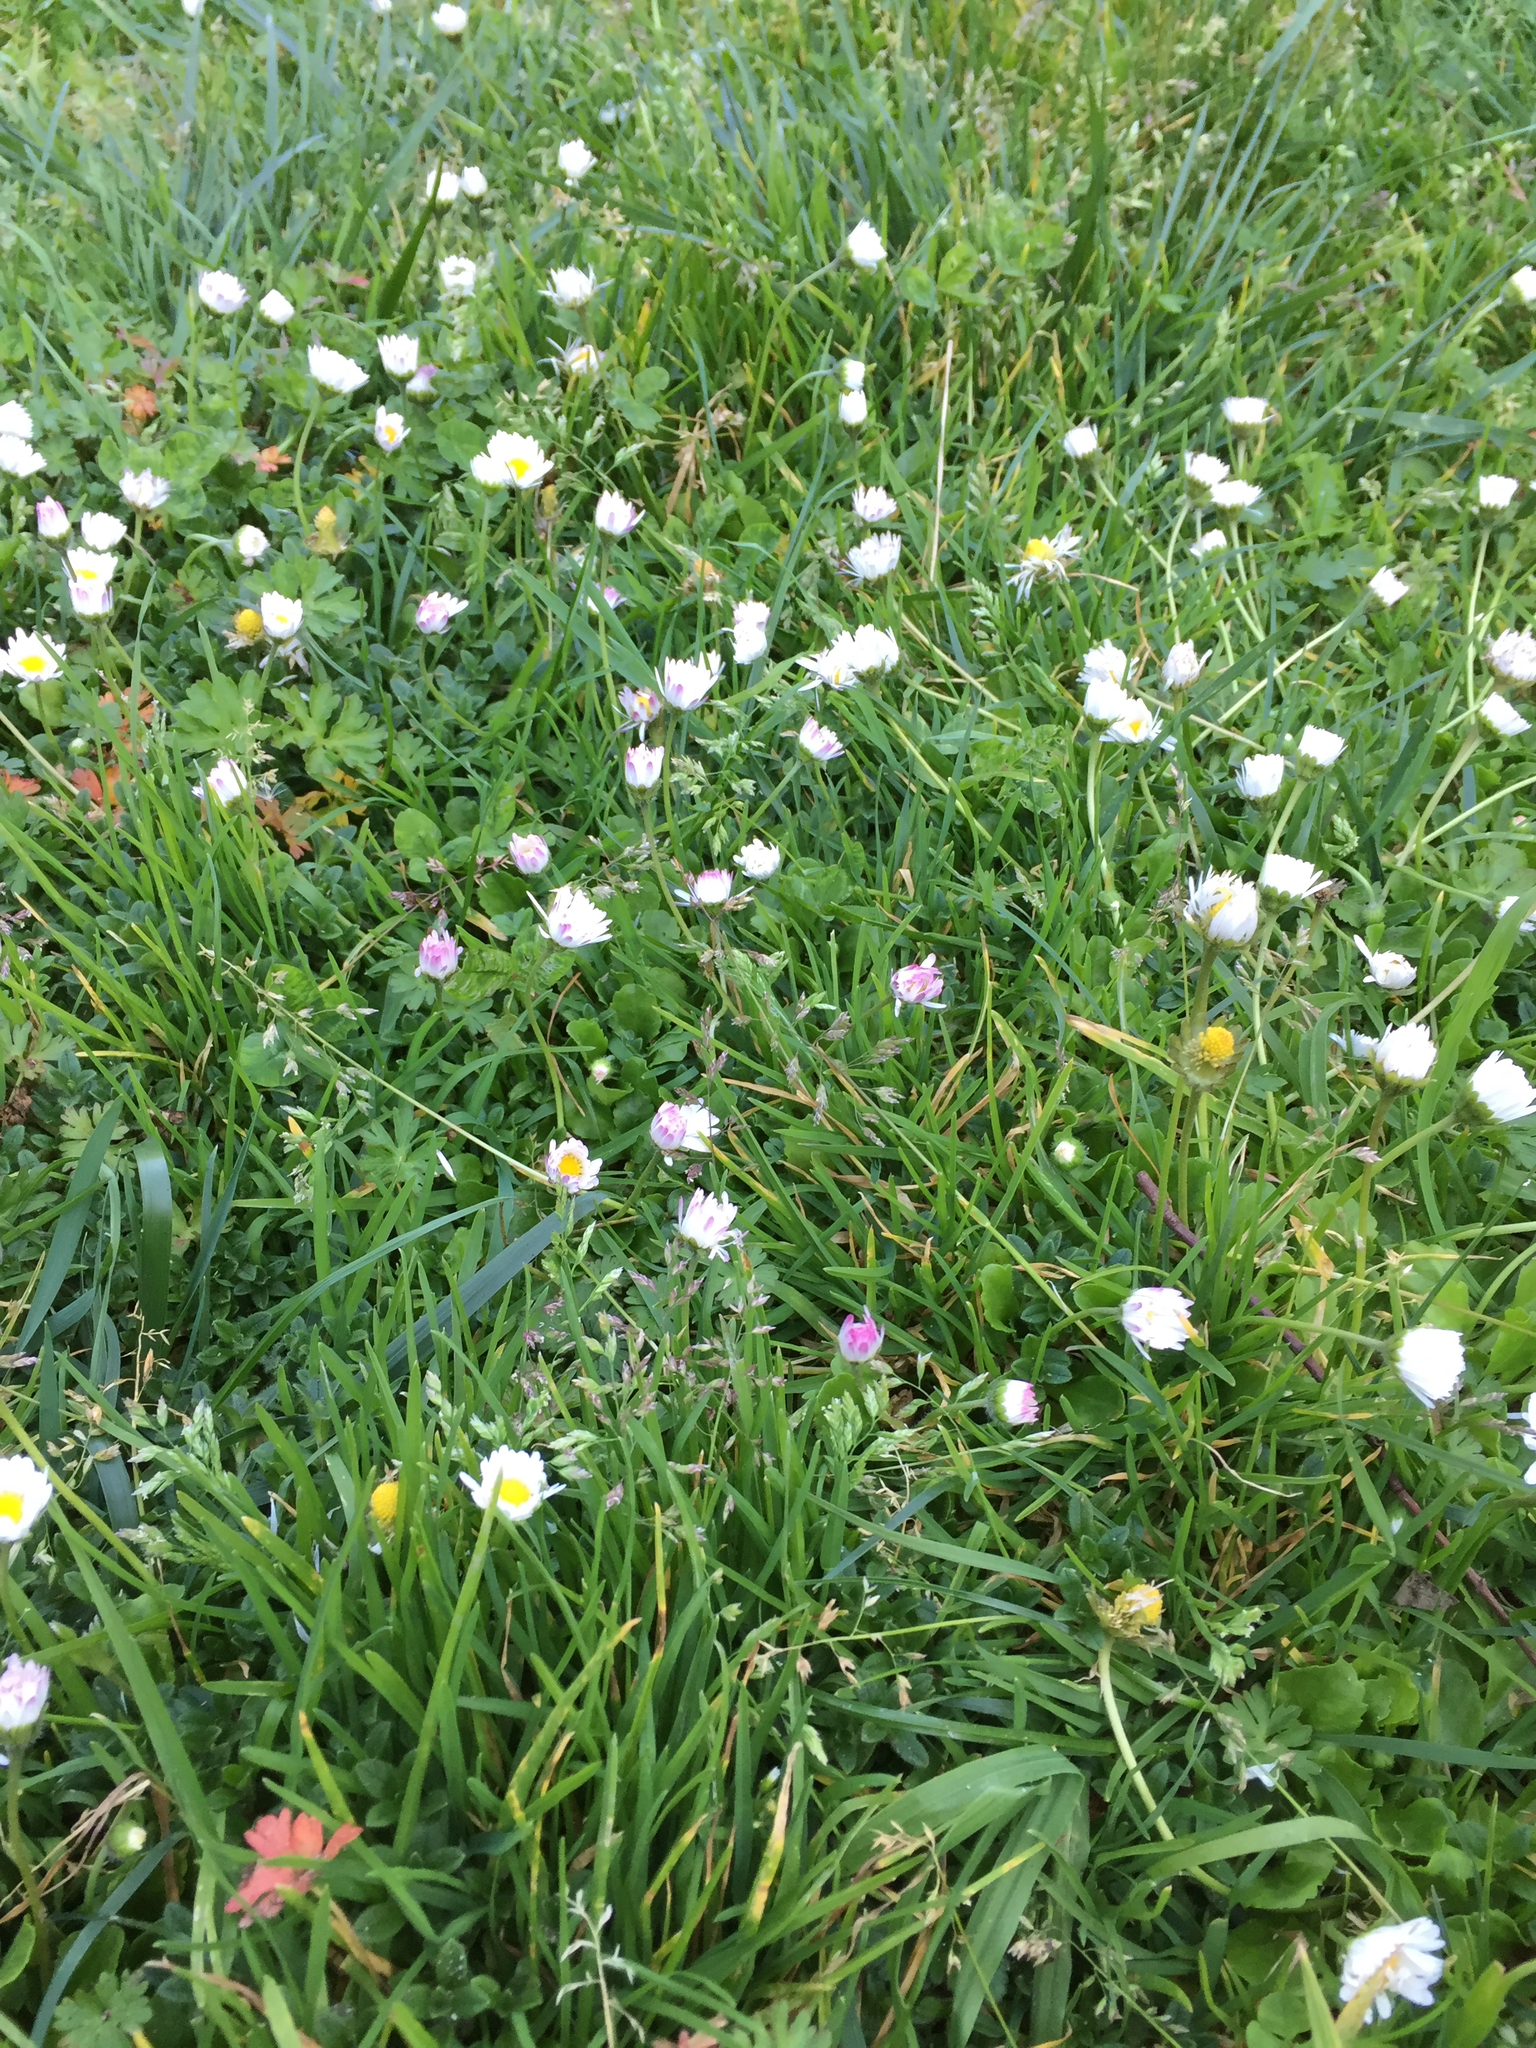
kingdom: Plantae
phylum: Tracheophyta
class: Magnoliopsida
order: Asterales
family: Asteraceae
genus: Bellis
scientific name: Bellis perennis
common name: Lawndaisy
